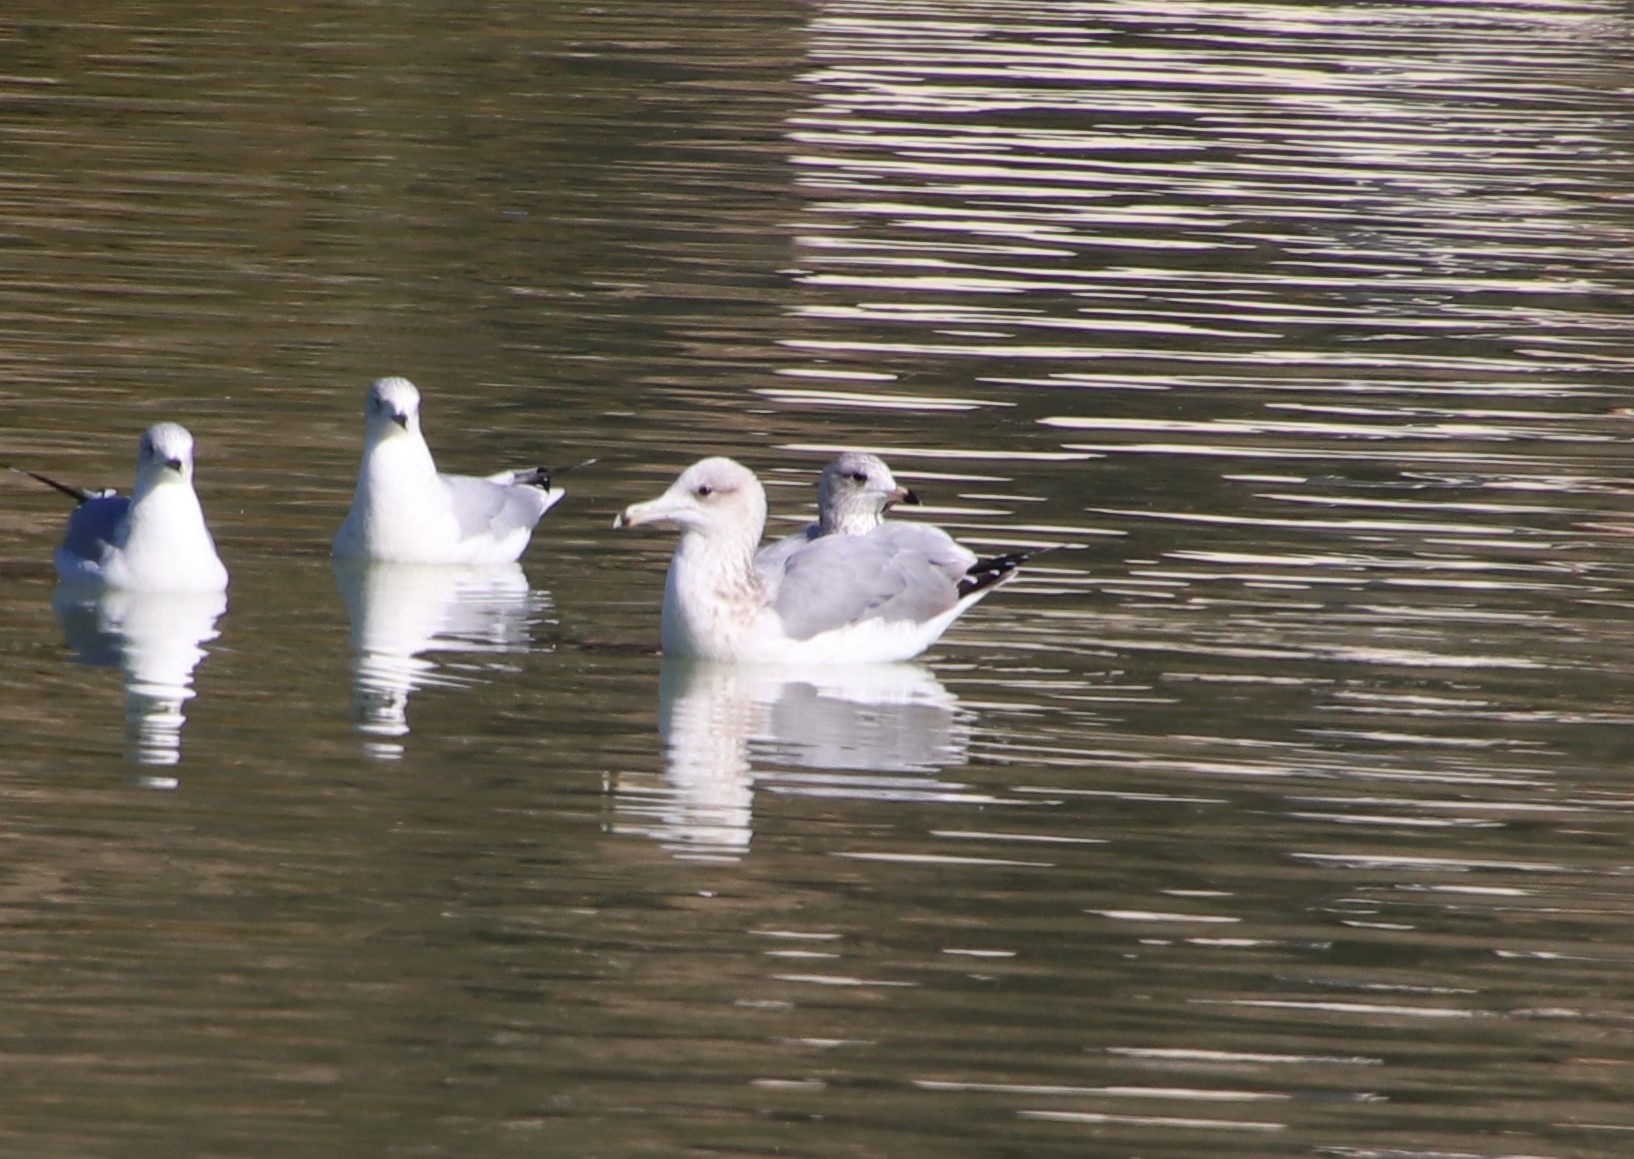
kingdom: Animalia
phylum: Chordata
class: Aves
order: Charadriiformes
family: Laridae
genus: Larus
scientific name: Larus californicus
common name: California gull
